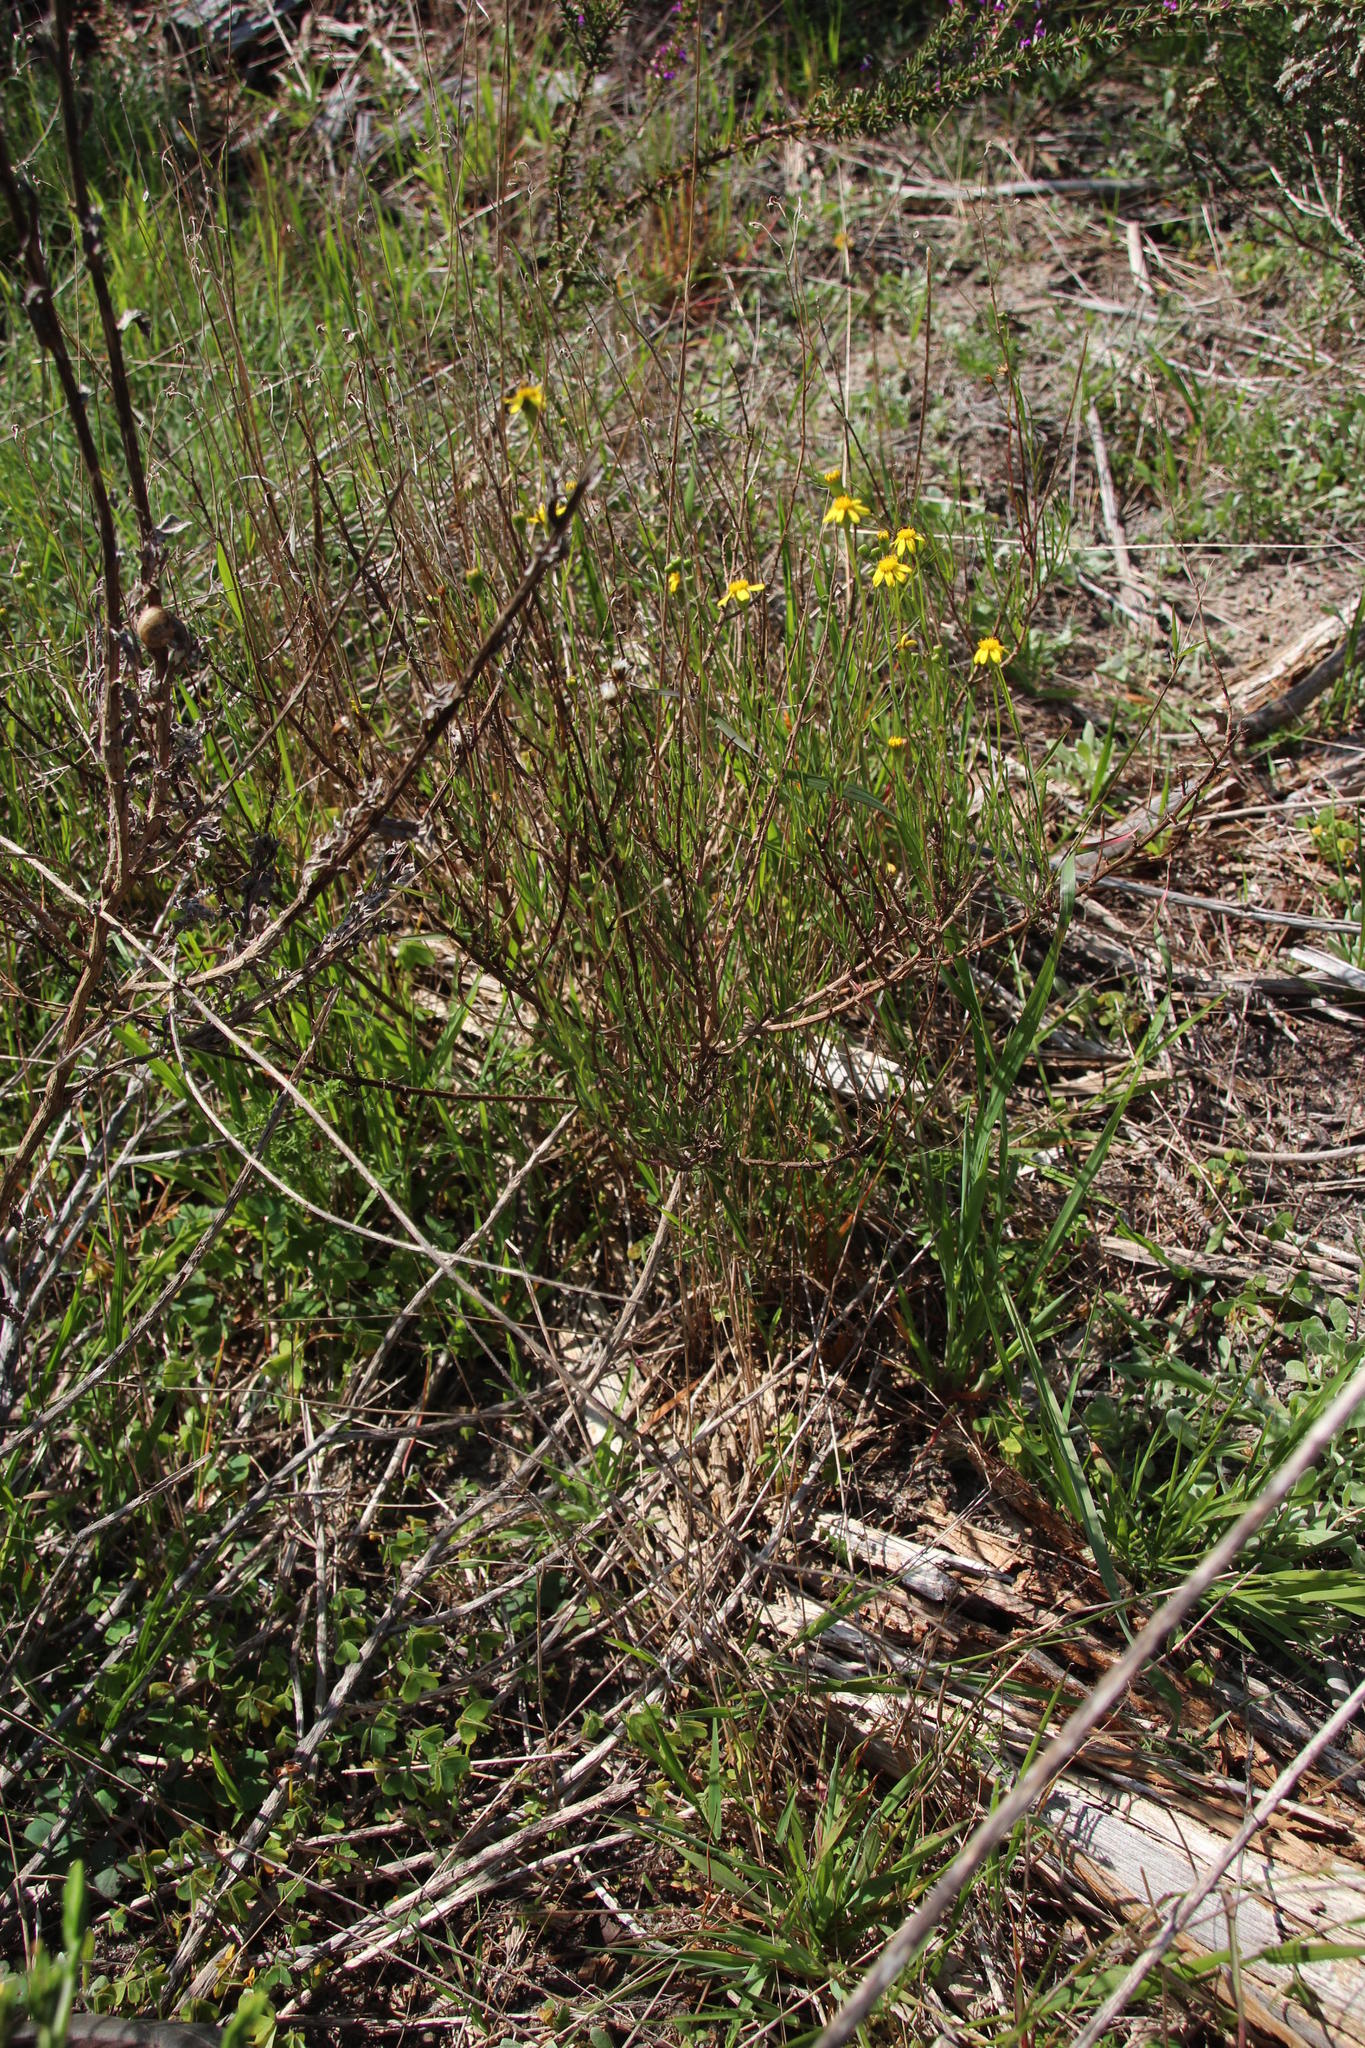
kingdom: Plantae
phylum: Tracheophyta
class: Magnoliopsida
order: Asterales
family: Asteraceae
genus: Senecio
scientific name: Senecio burchellii
